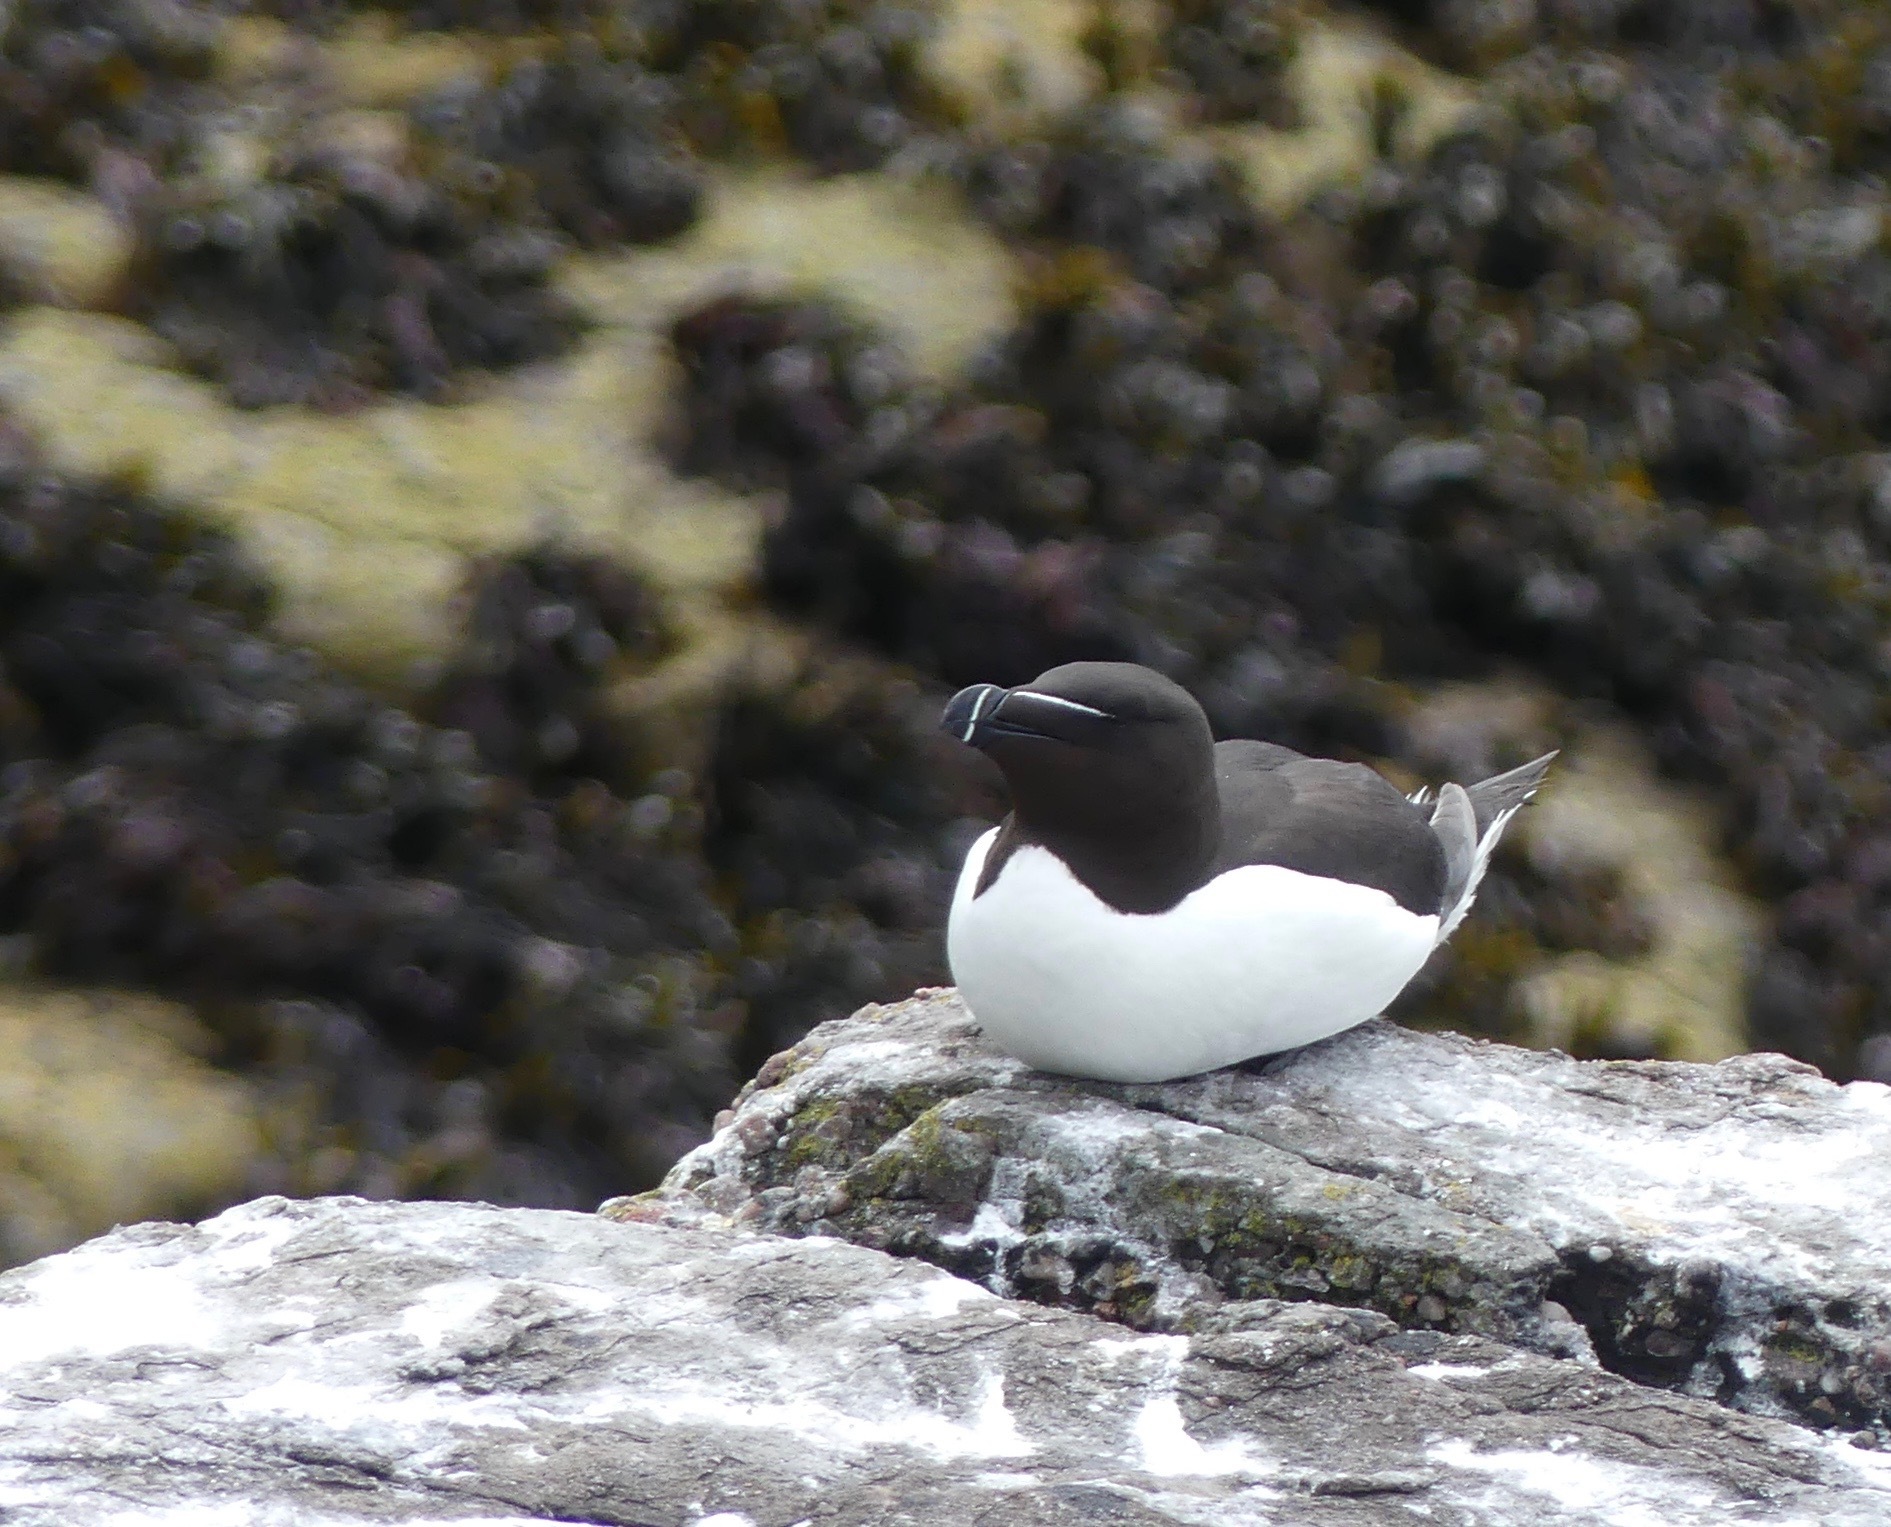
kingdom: Animalia
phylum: Chordata
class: Aves
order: Charadriiformes
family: Alcidae
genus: Alca
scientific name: Alca torda
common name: Razorbill
